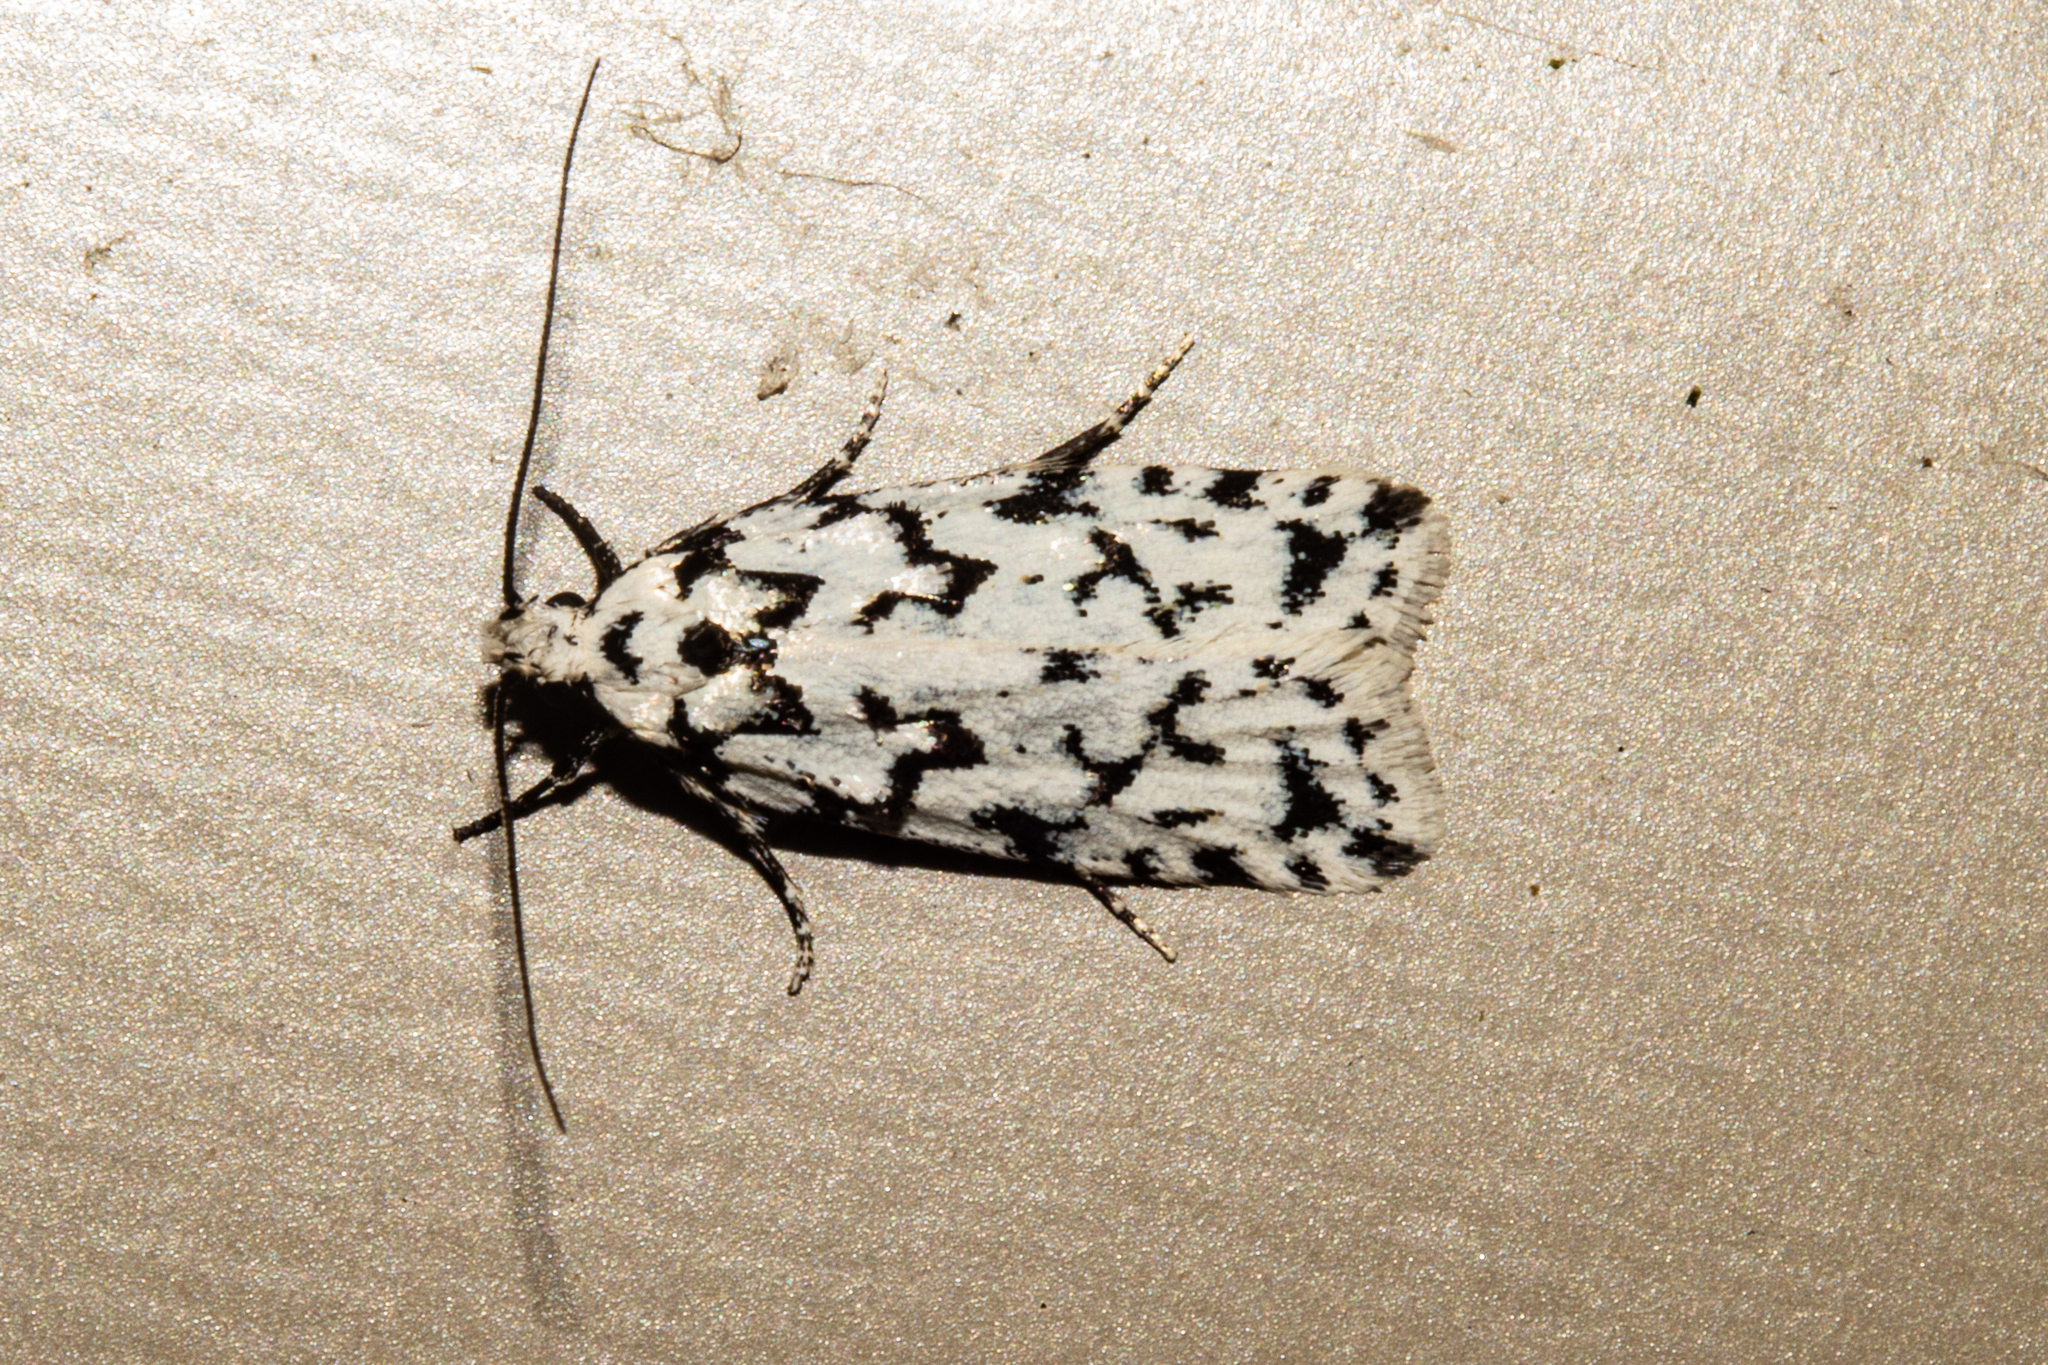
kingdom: Animalia
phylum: Arthropoda
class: Insecta
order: Lepidoptera
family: Oecophoridae
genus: Izatha
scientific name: Izatha katadiktya
